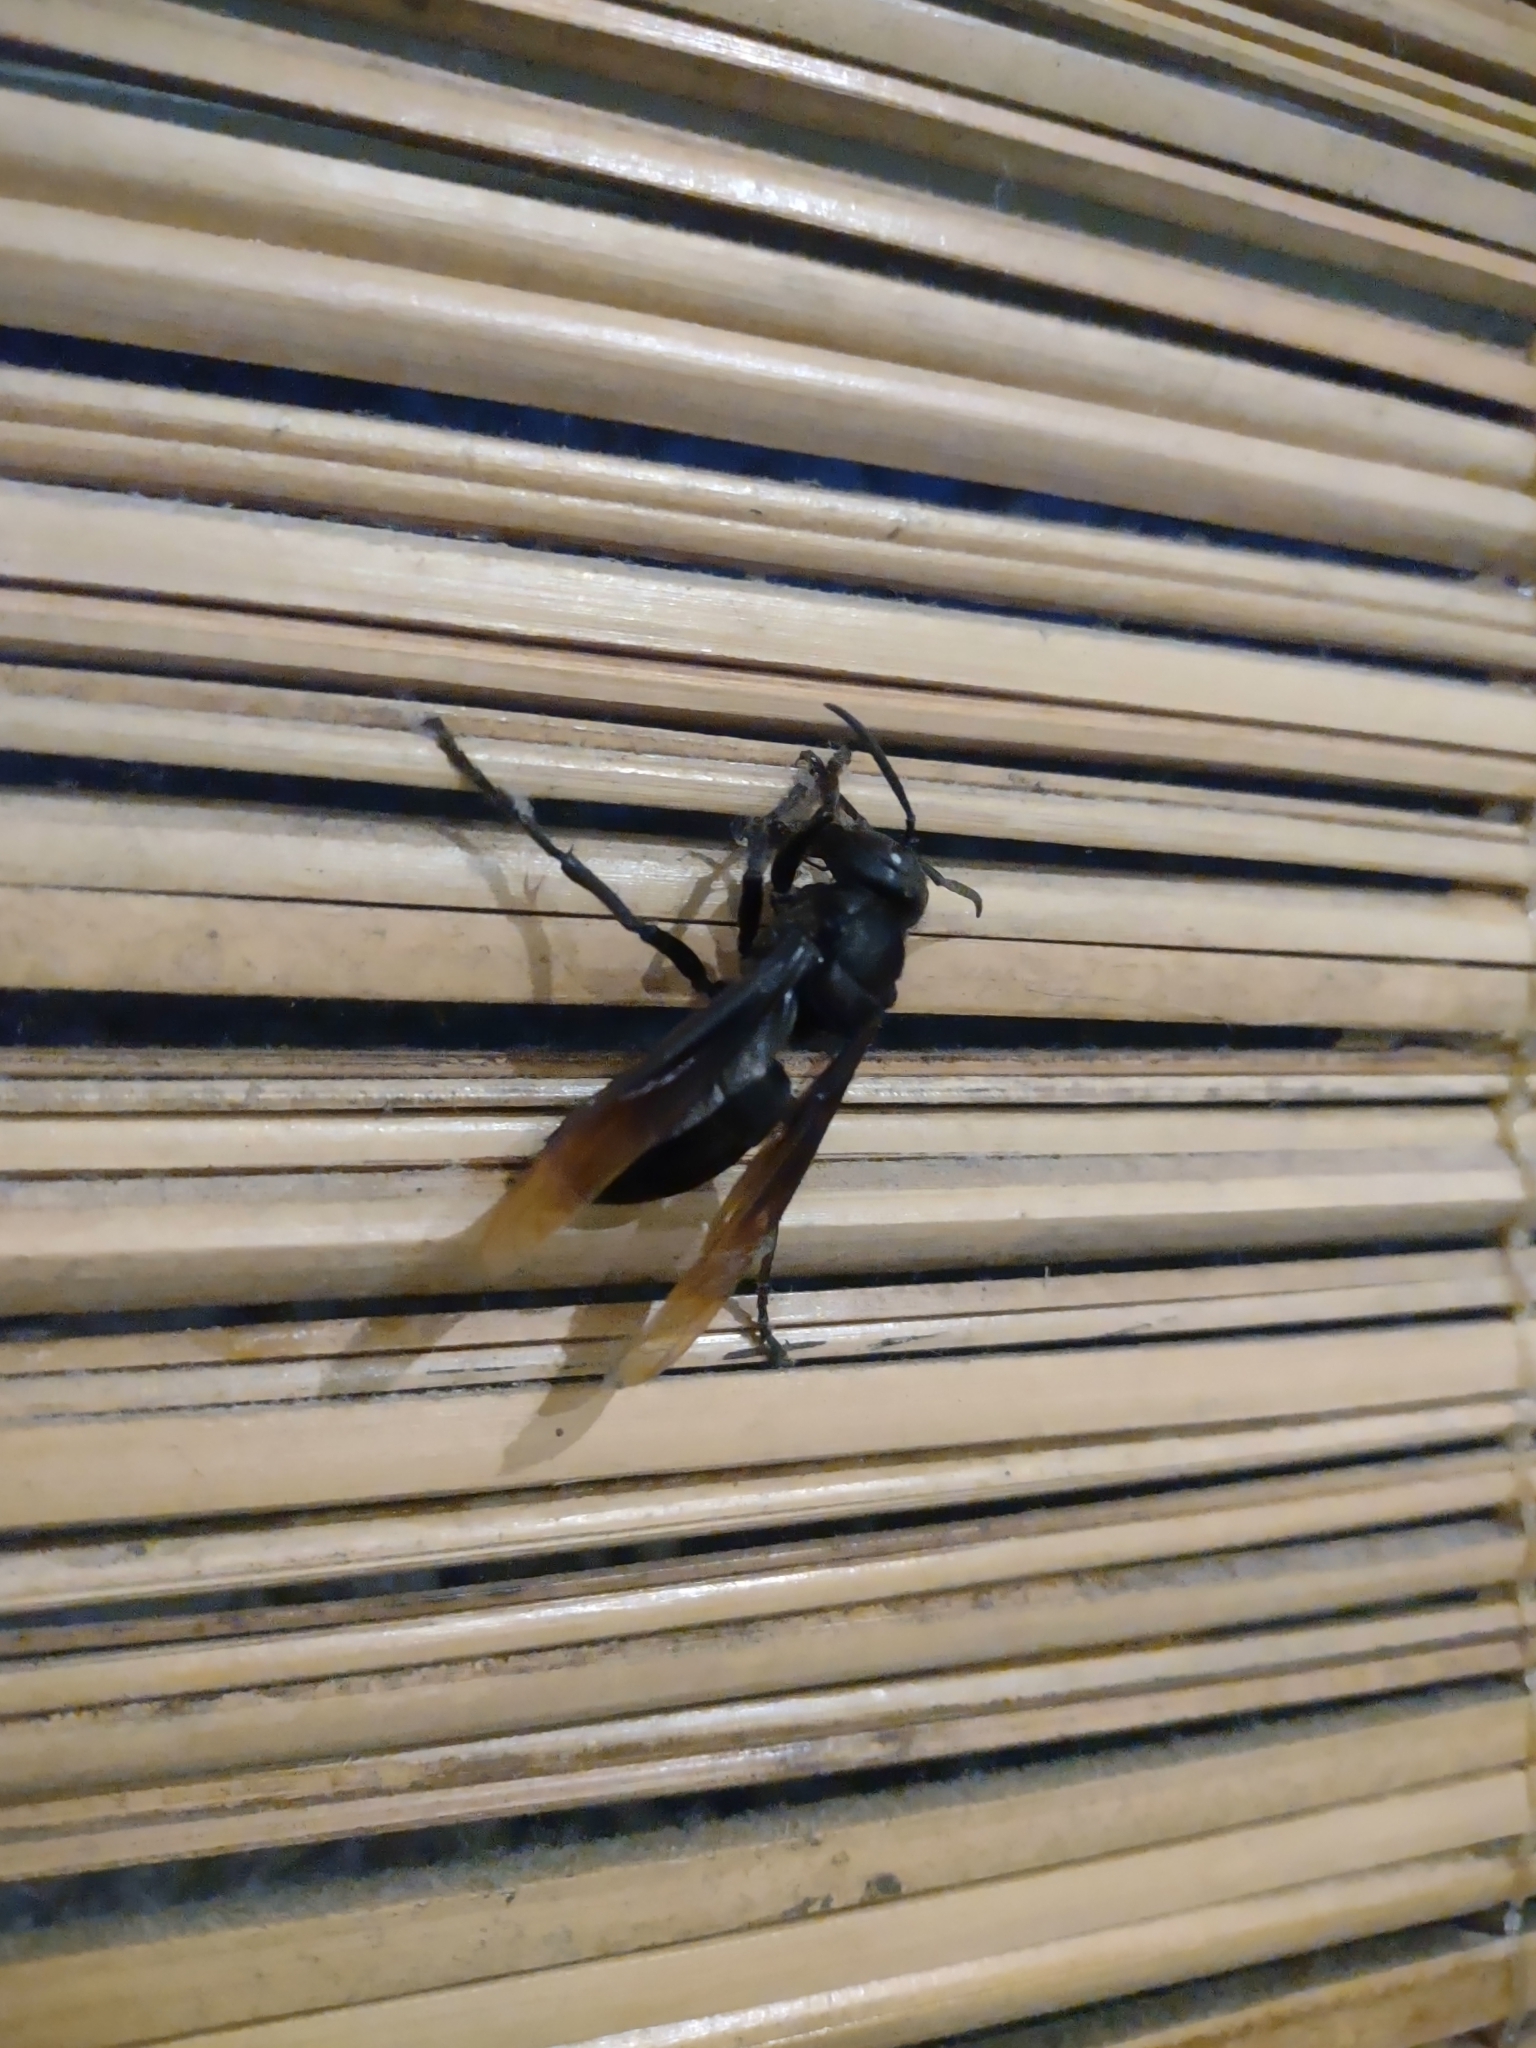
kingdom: Animalia
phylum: Arthropoda
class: Insecta
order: Hymenoptera
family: Vespidae
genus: Vespa
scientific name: Vespa tropica
